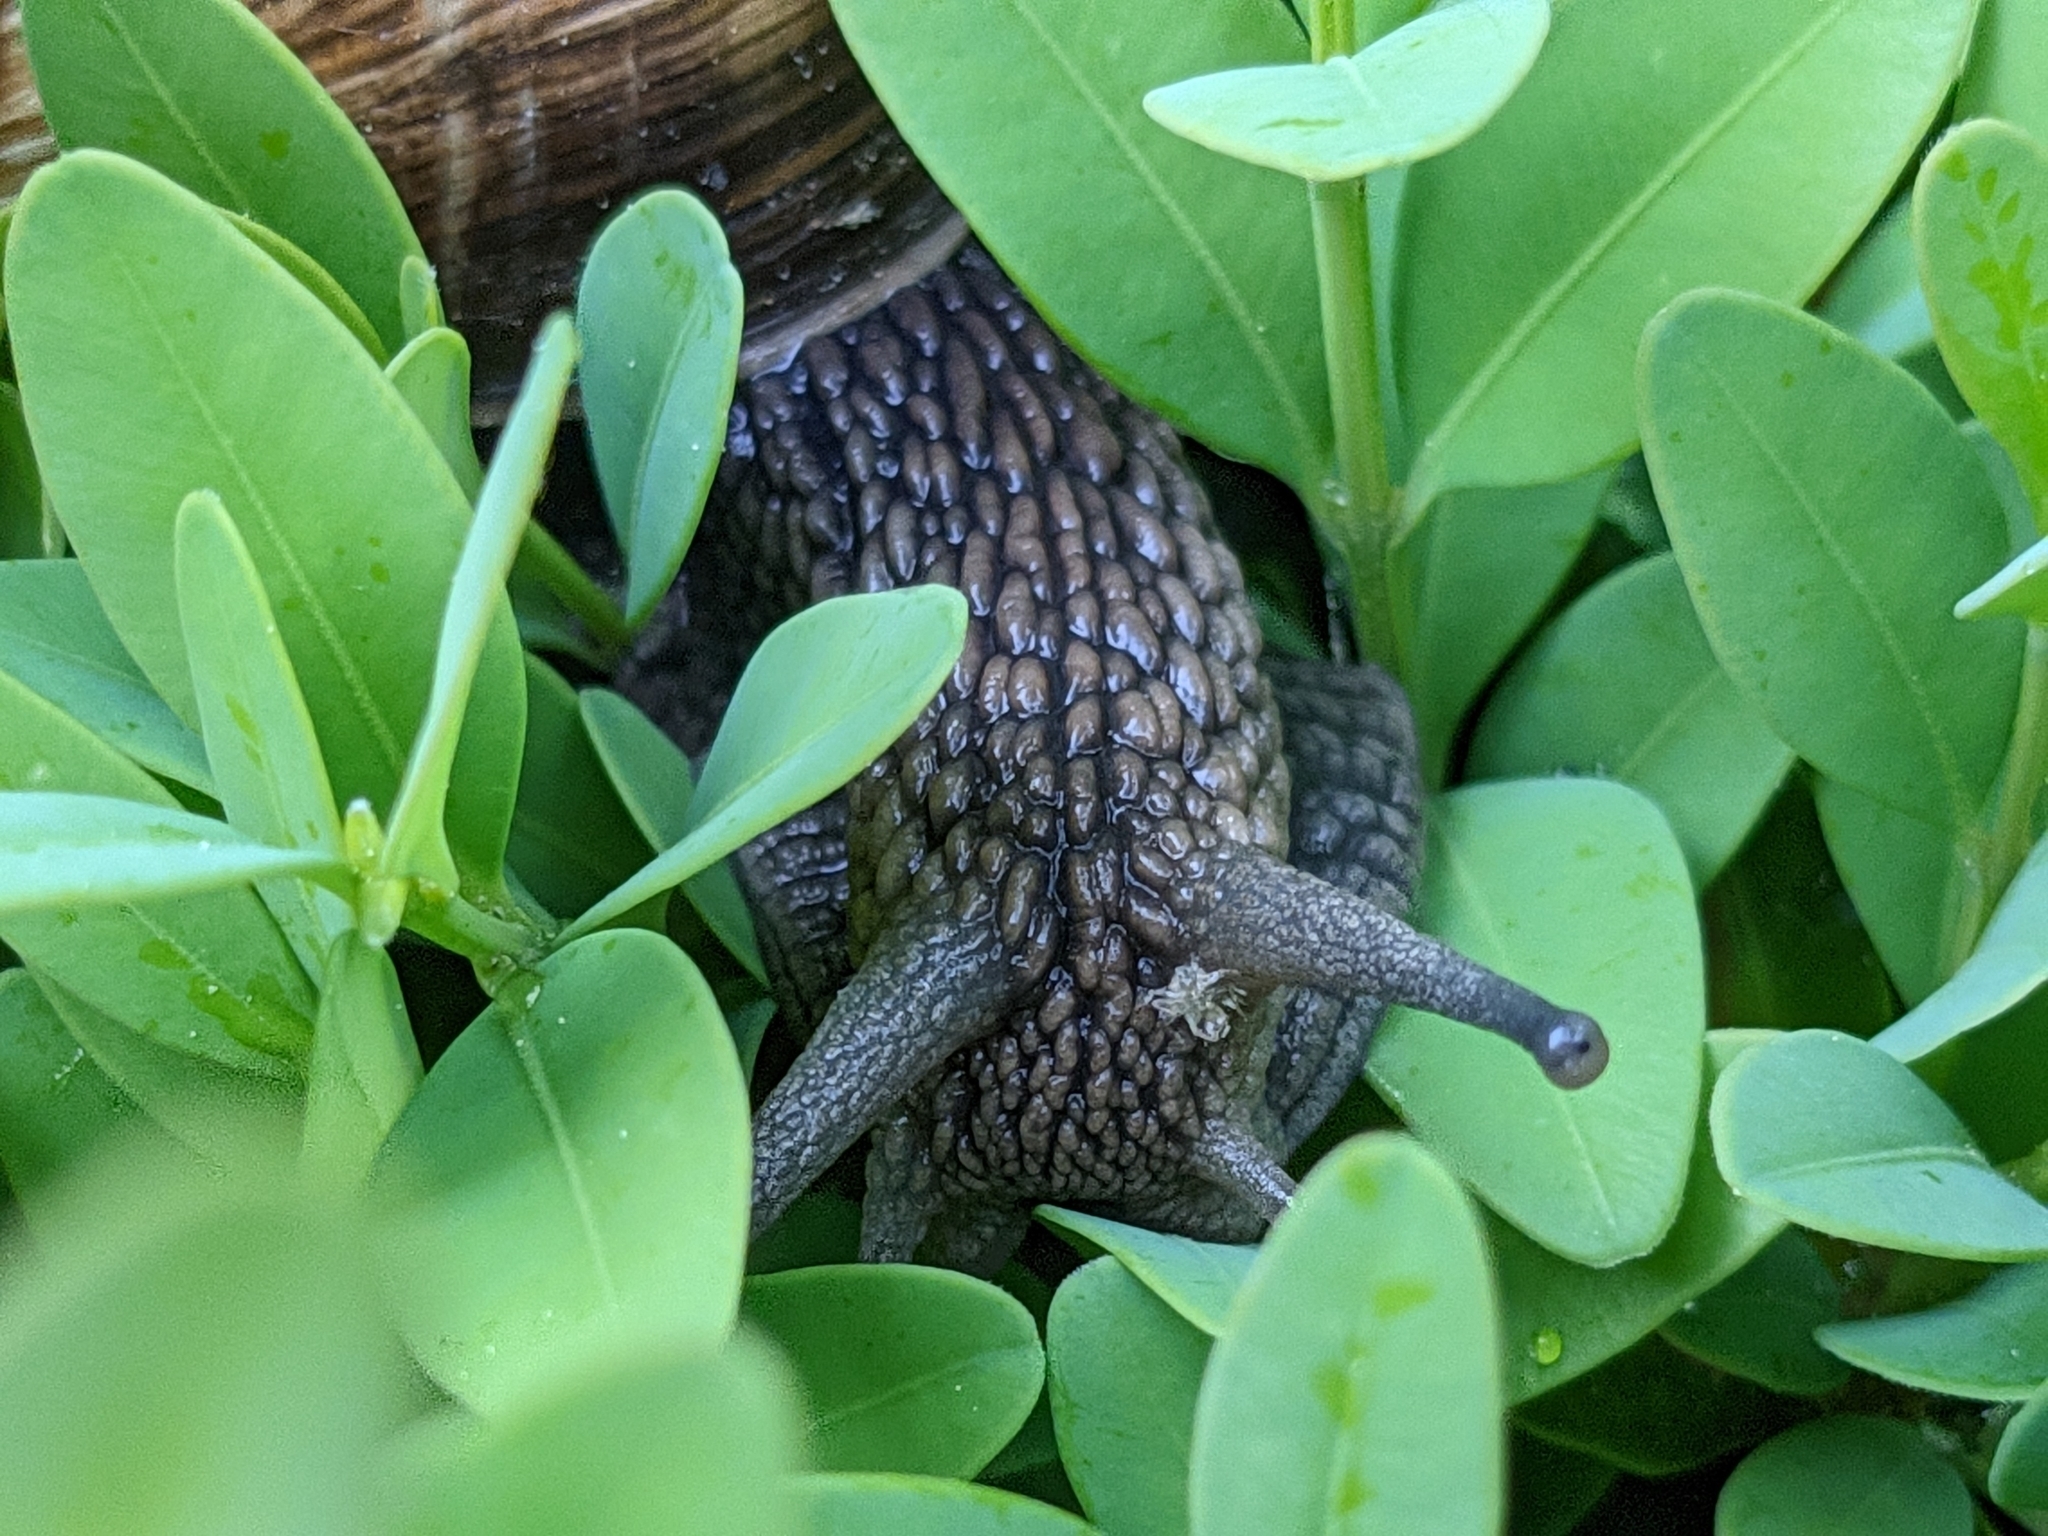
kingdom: Animalia
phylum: Mollusca
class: Gastropoda
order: Stylommatophora
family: Helicidae
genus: Helix
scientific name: Helix pomatia
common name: Roman snail
